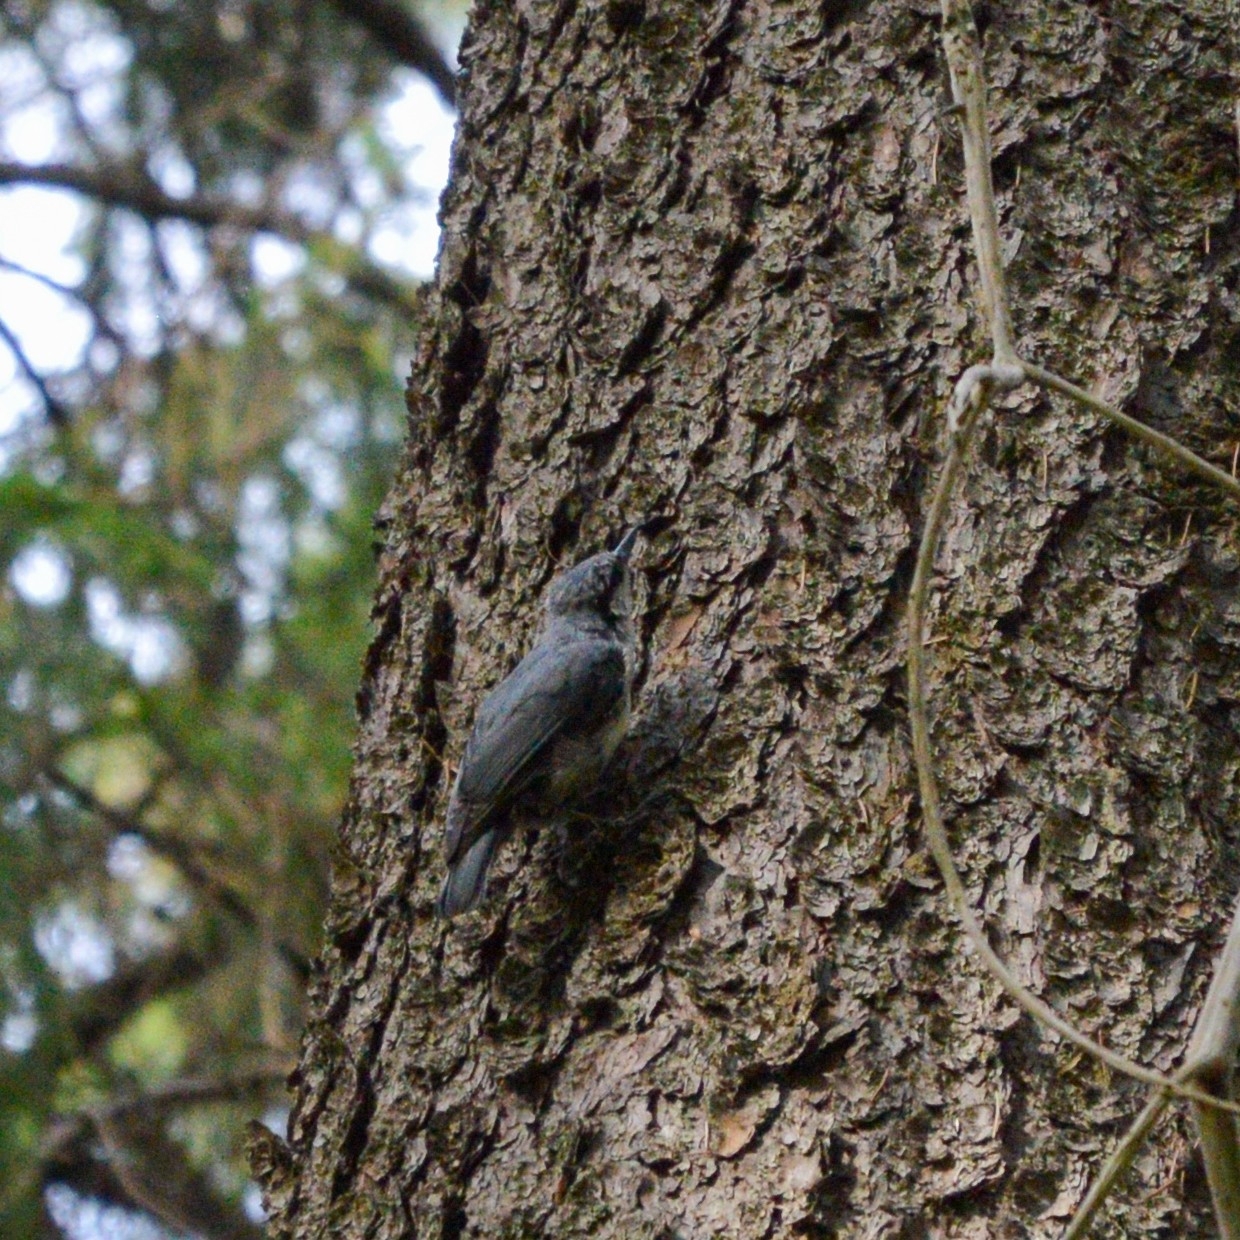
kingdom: Animalia
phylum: Chordata
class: Aves
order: Passeriformes
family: Sittidae
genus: Sitta
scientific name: Sitta europaea
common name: Eurasian nuthatch
